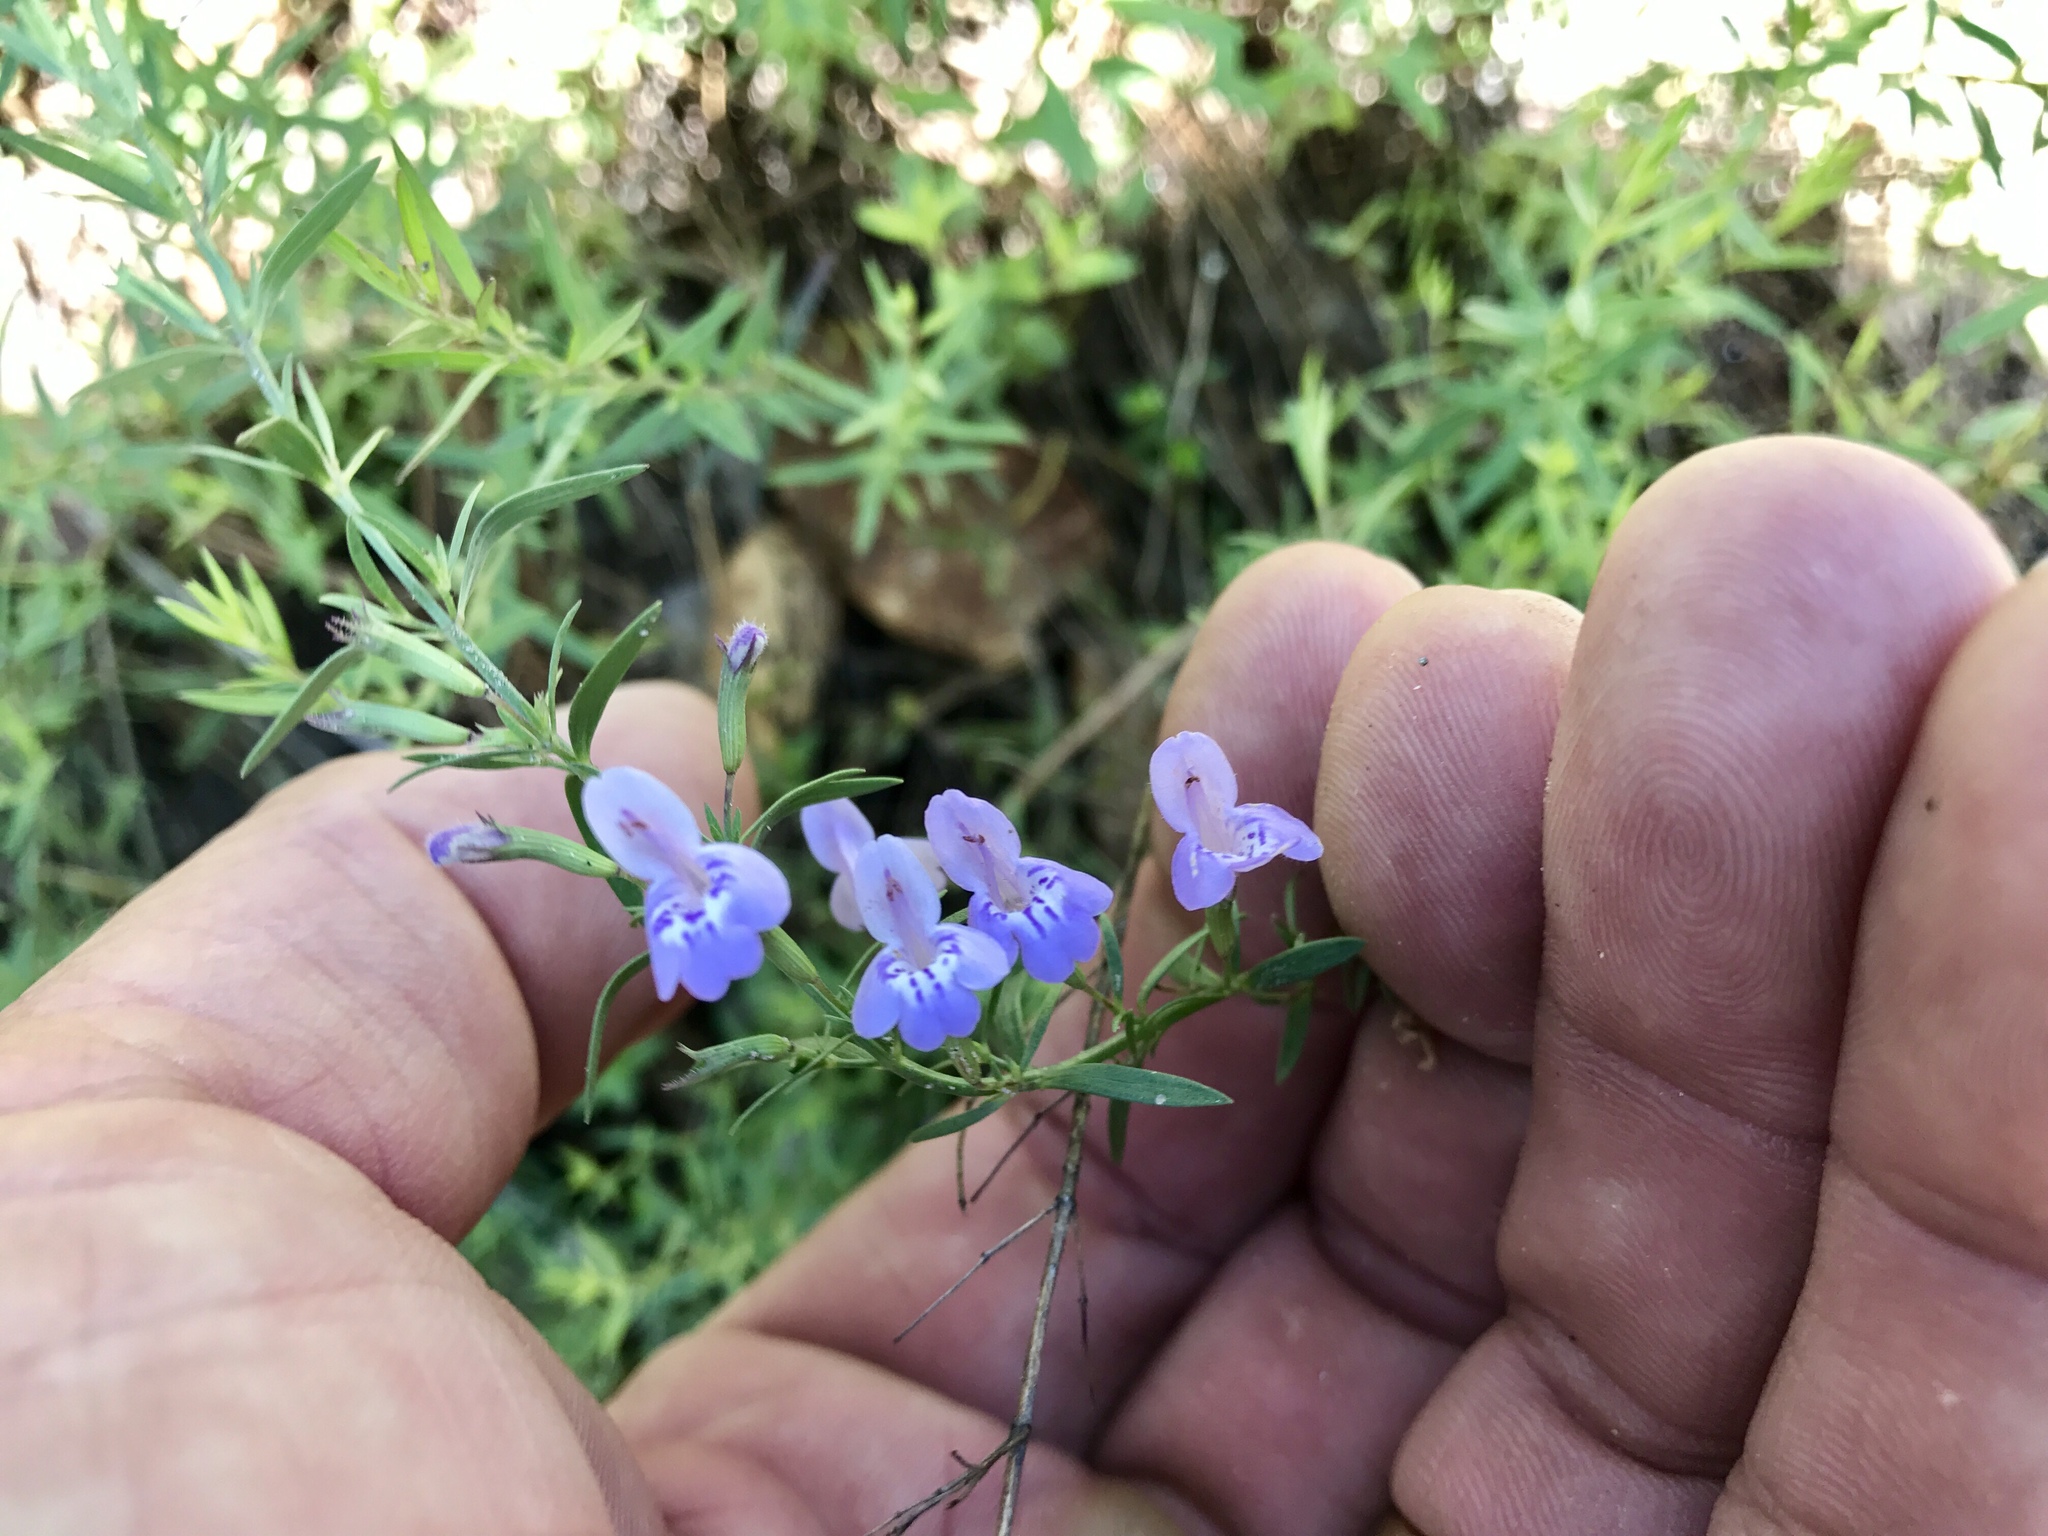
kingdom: Plantae
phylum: Tracheophyta
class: Magnoliopsida
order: Lamiales
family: Lamiaceae
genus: Hedeoma
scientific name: Hedeoma hyssopifolia
